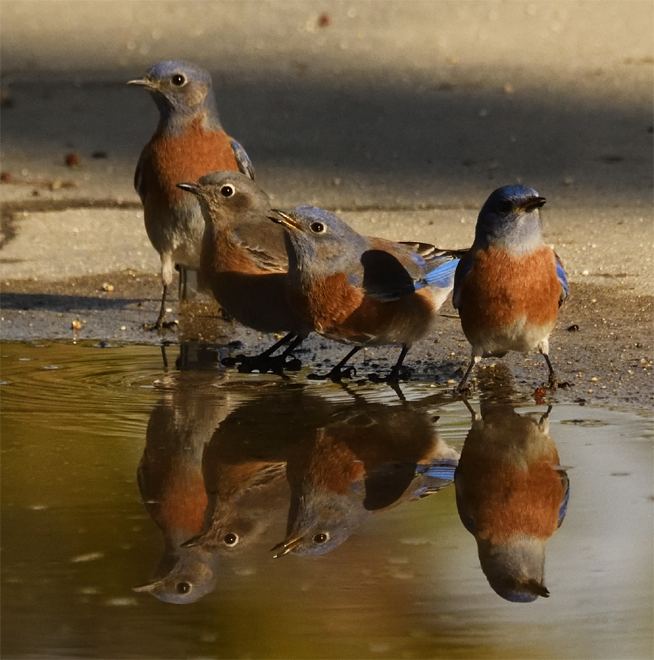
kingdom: Animalia
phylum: Chordata
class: Aves
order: Passeriformes
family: Turdidae
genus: Sialia
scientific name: Sialia mexicana
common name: Western bluebird
